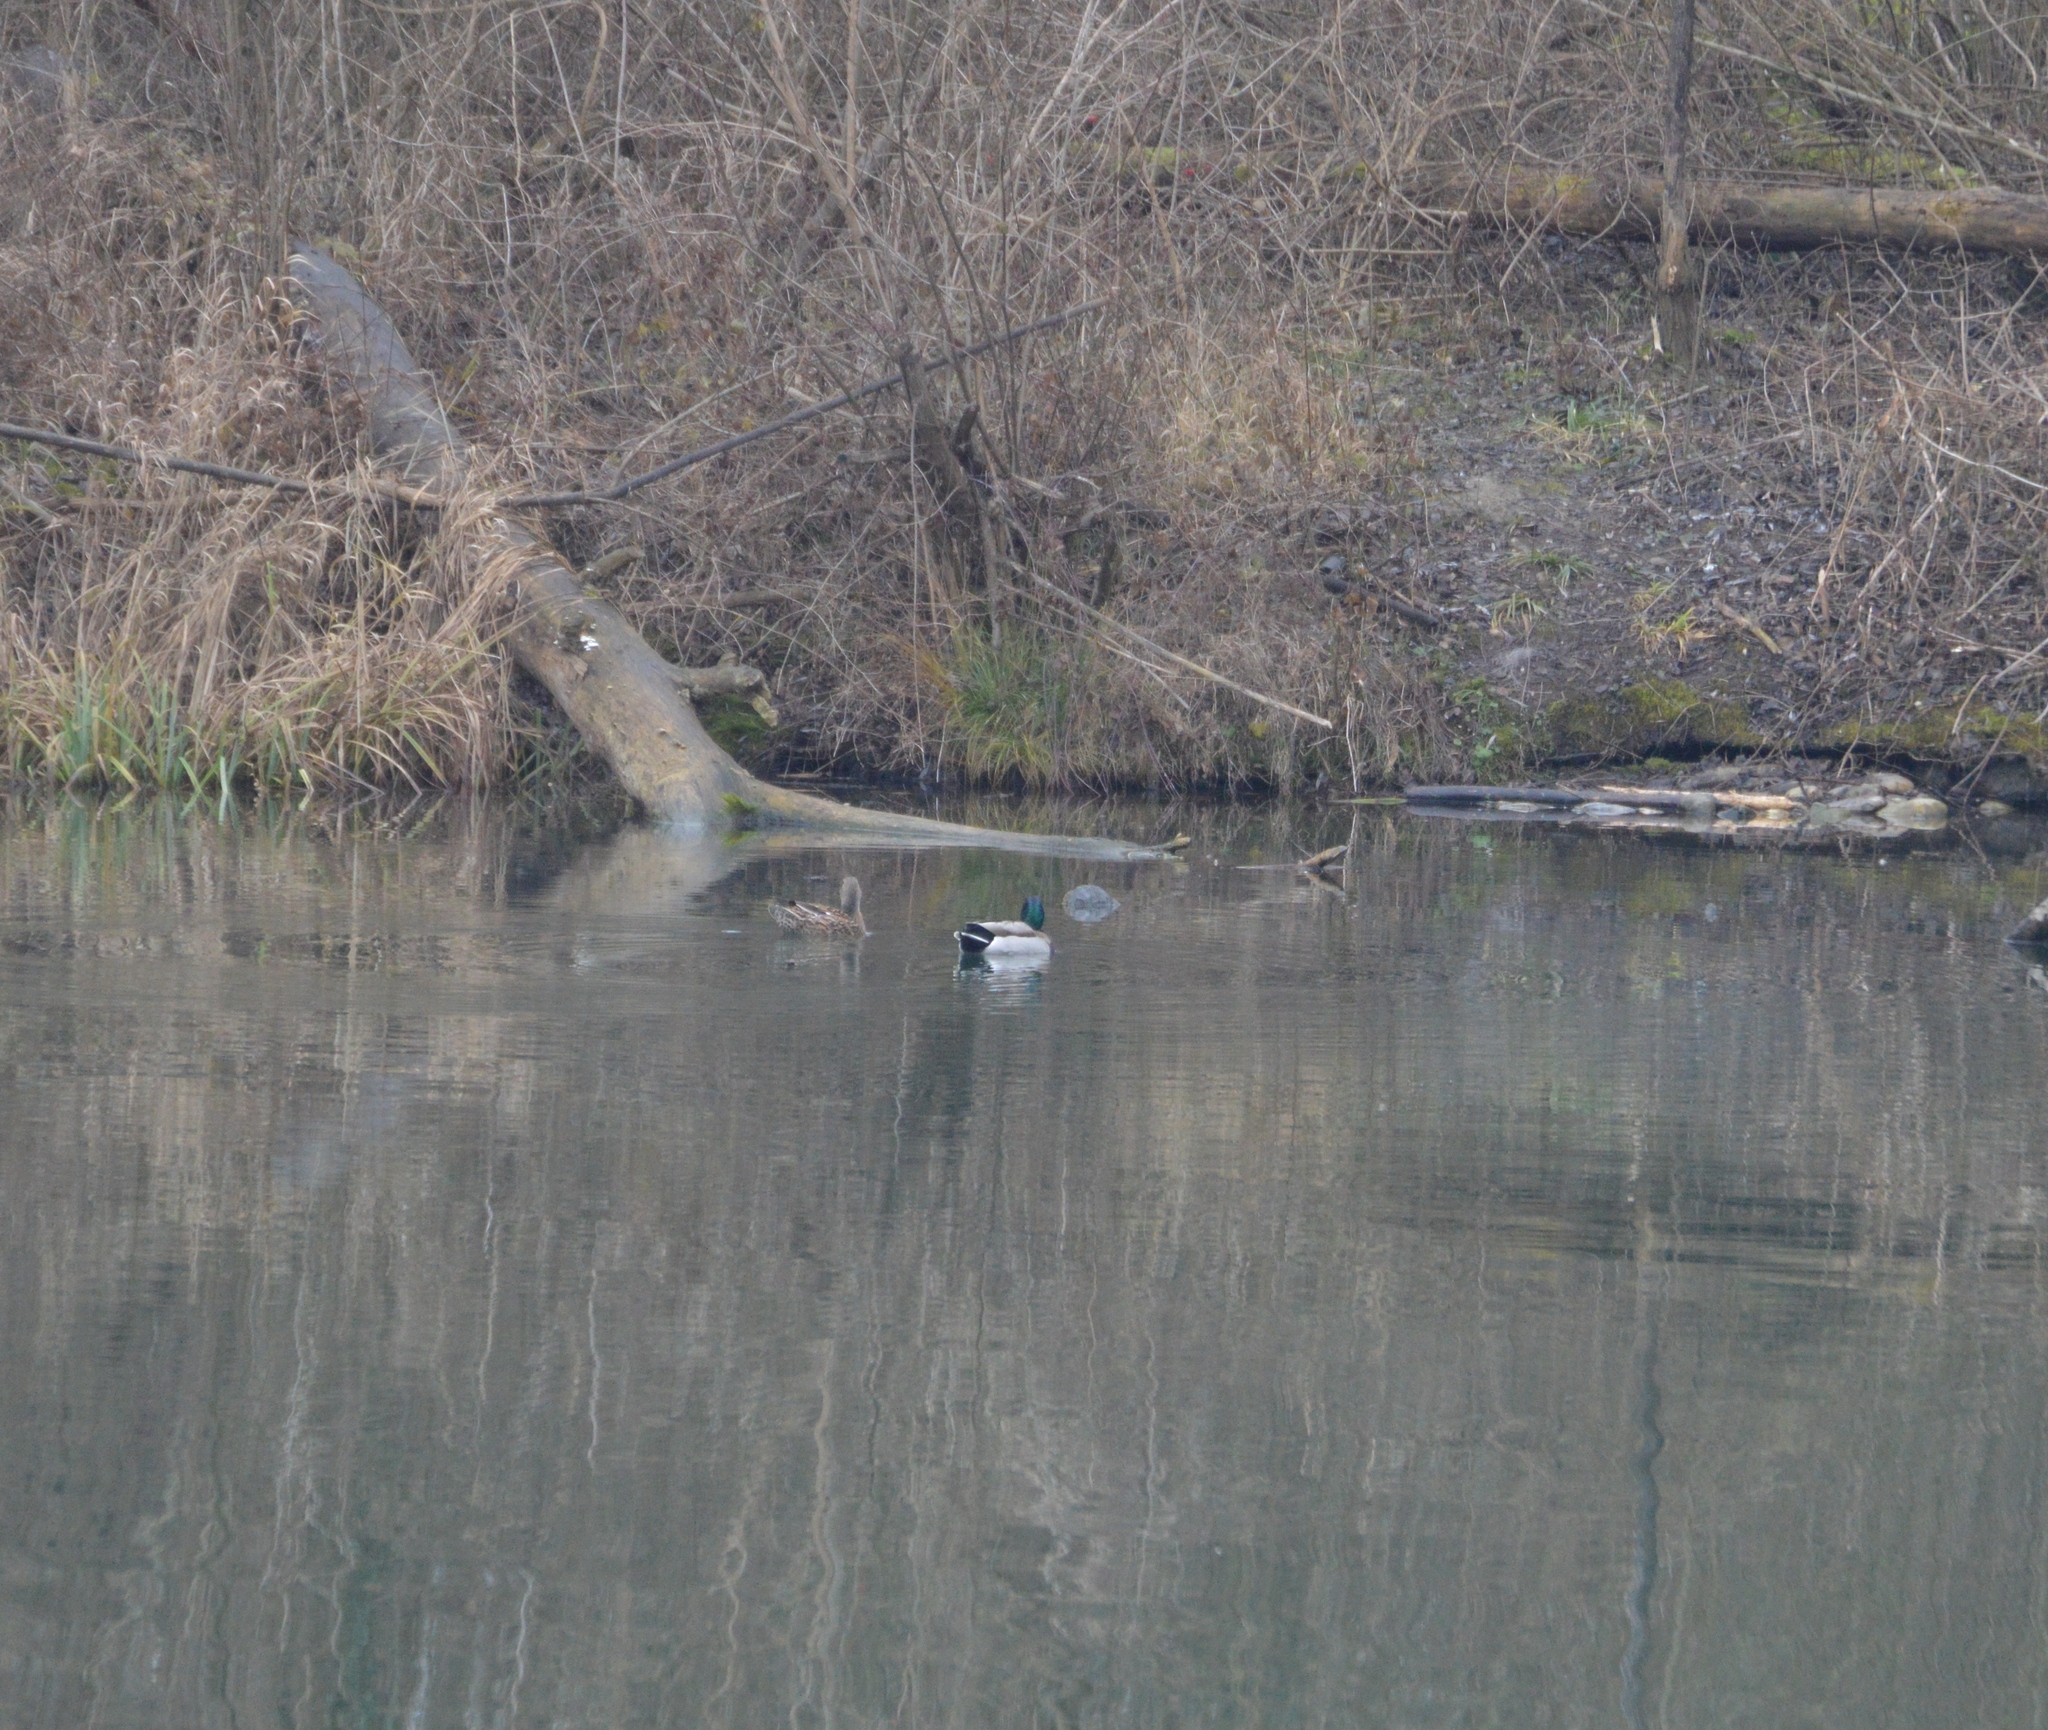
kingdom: Animalia
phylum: Chordata
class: Aves
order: Anseriformes
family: Anatidae
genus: Anas
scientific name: Anas platyrhynchos
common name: Mallard
